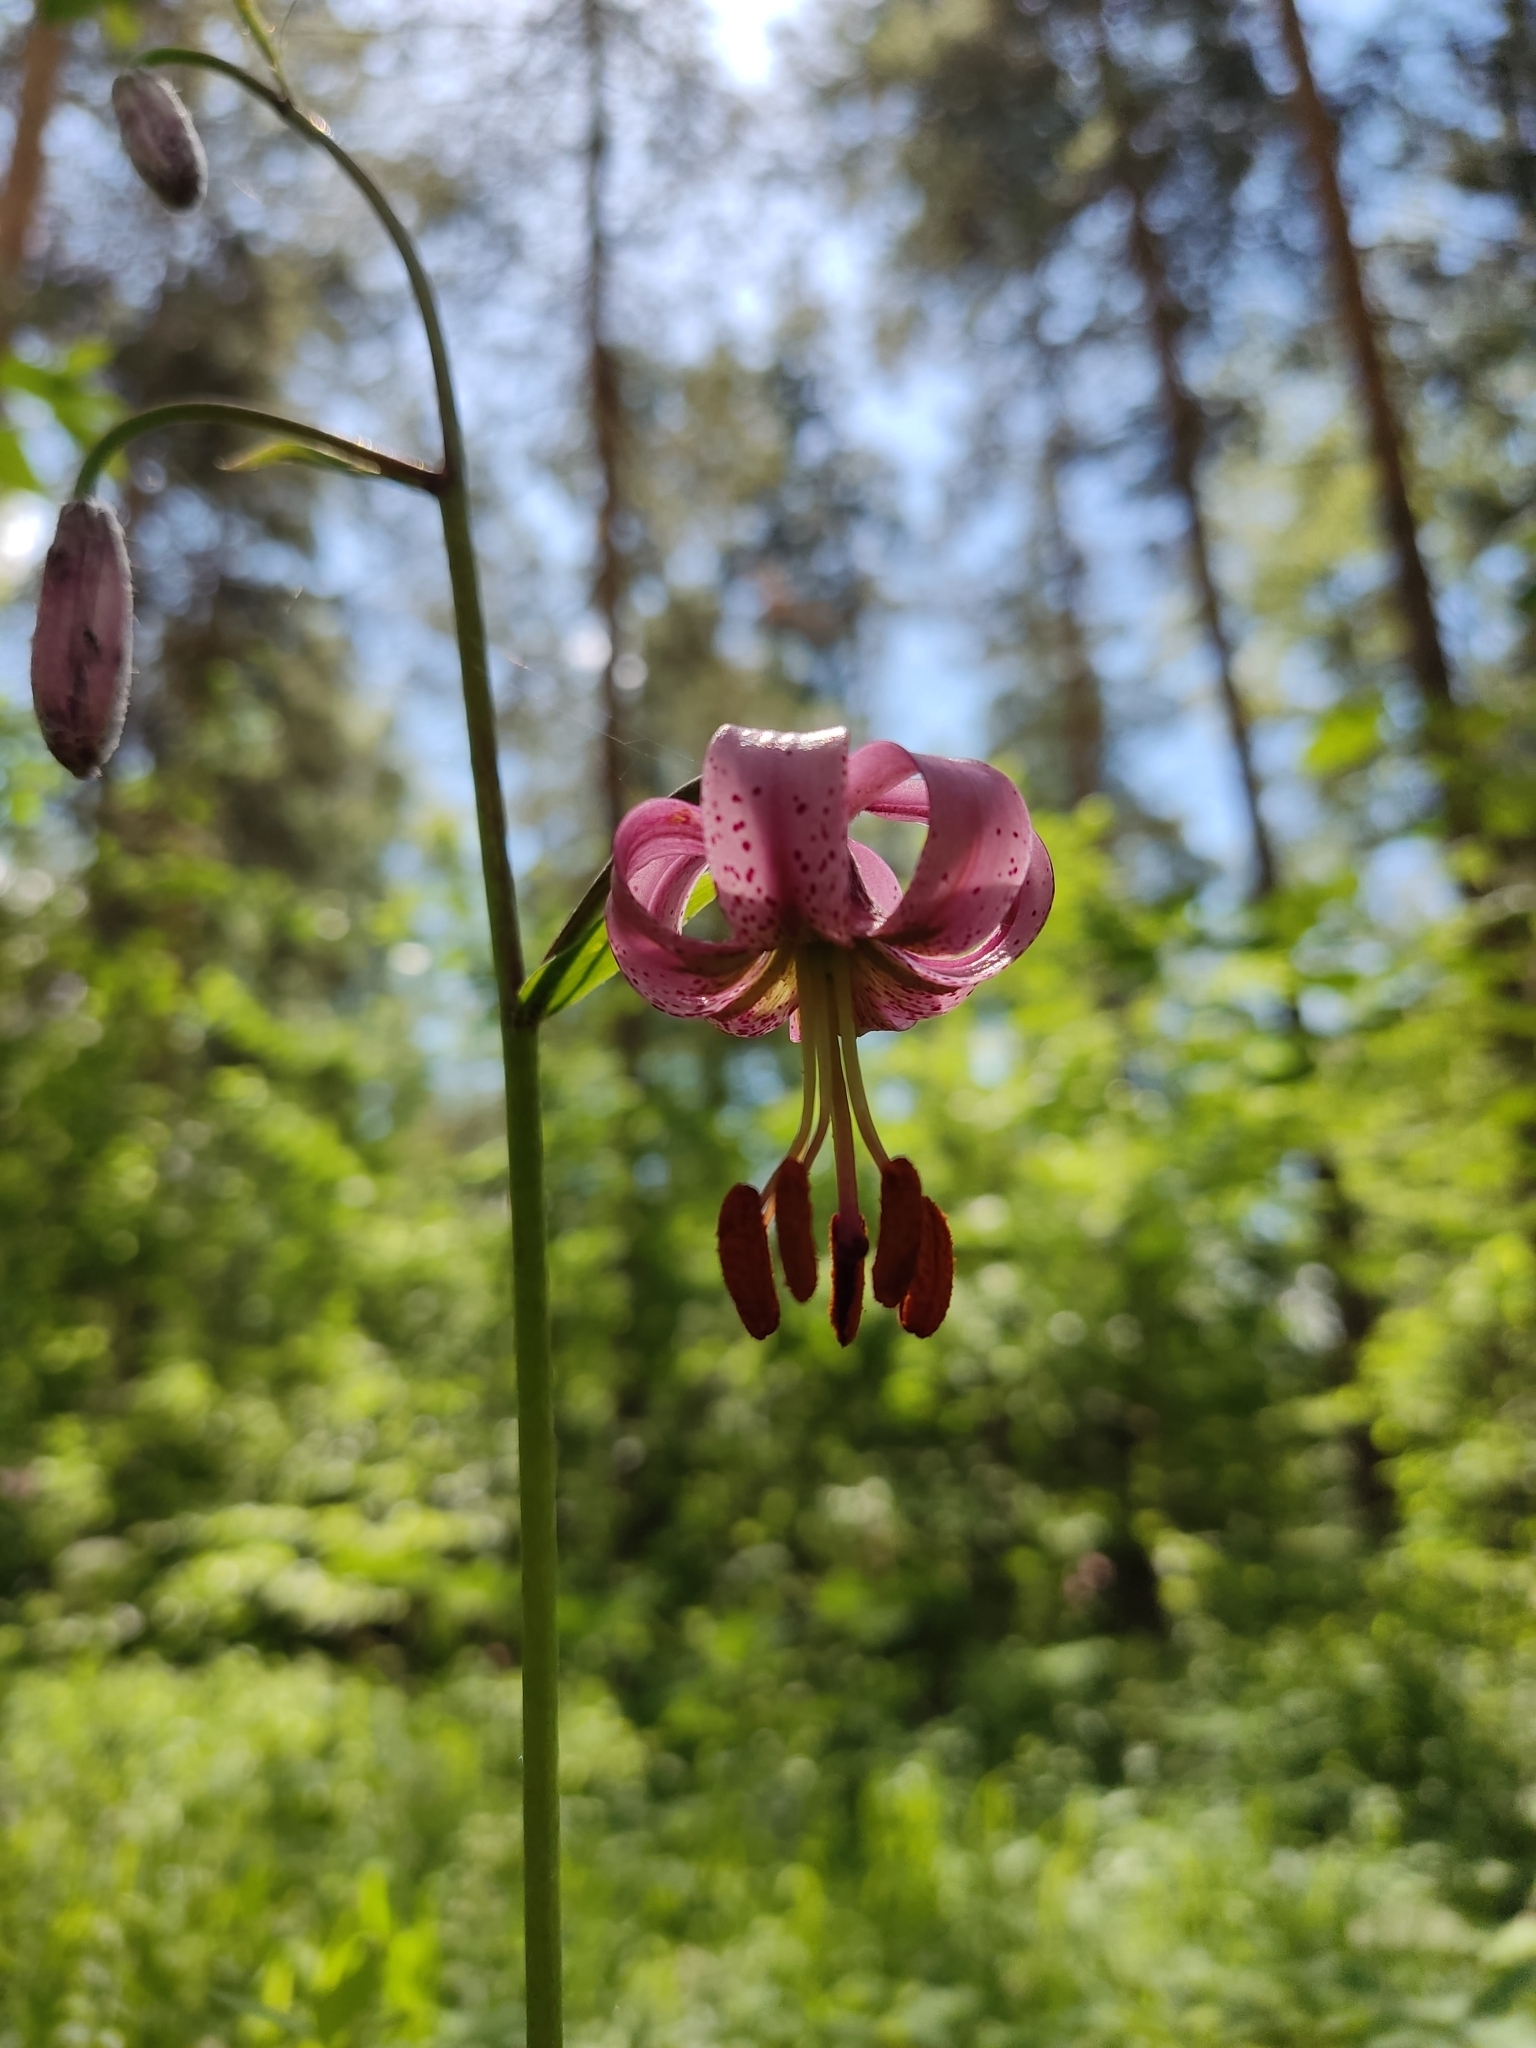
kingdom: Plantae
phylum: Tracheophyta
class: Liliopsida
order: Liliales
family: Liliaceae
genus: Lilium
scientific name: Lilium martagon
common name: Martagon lily
